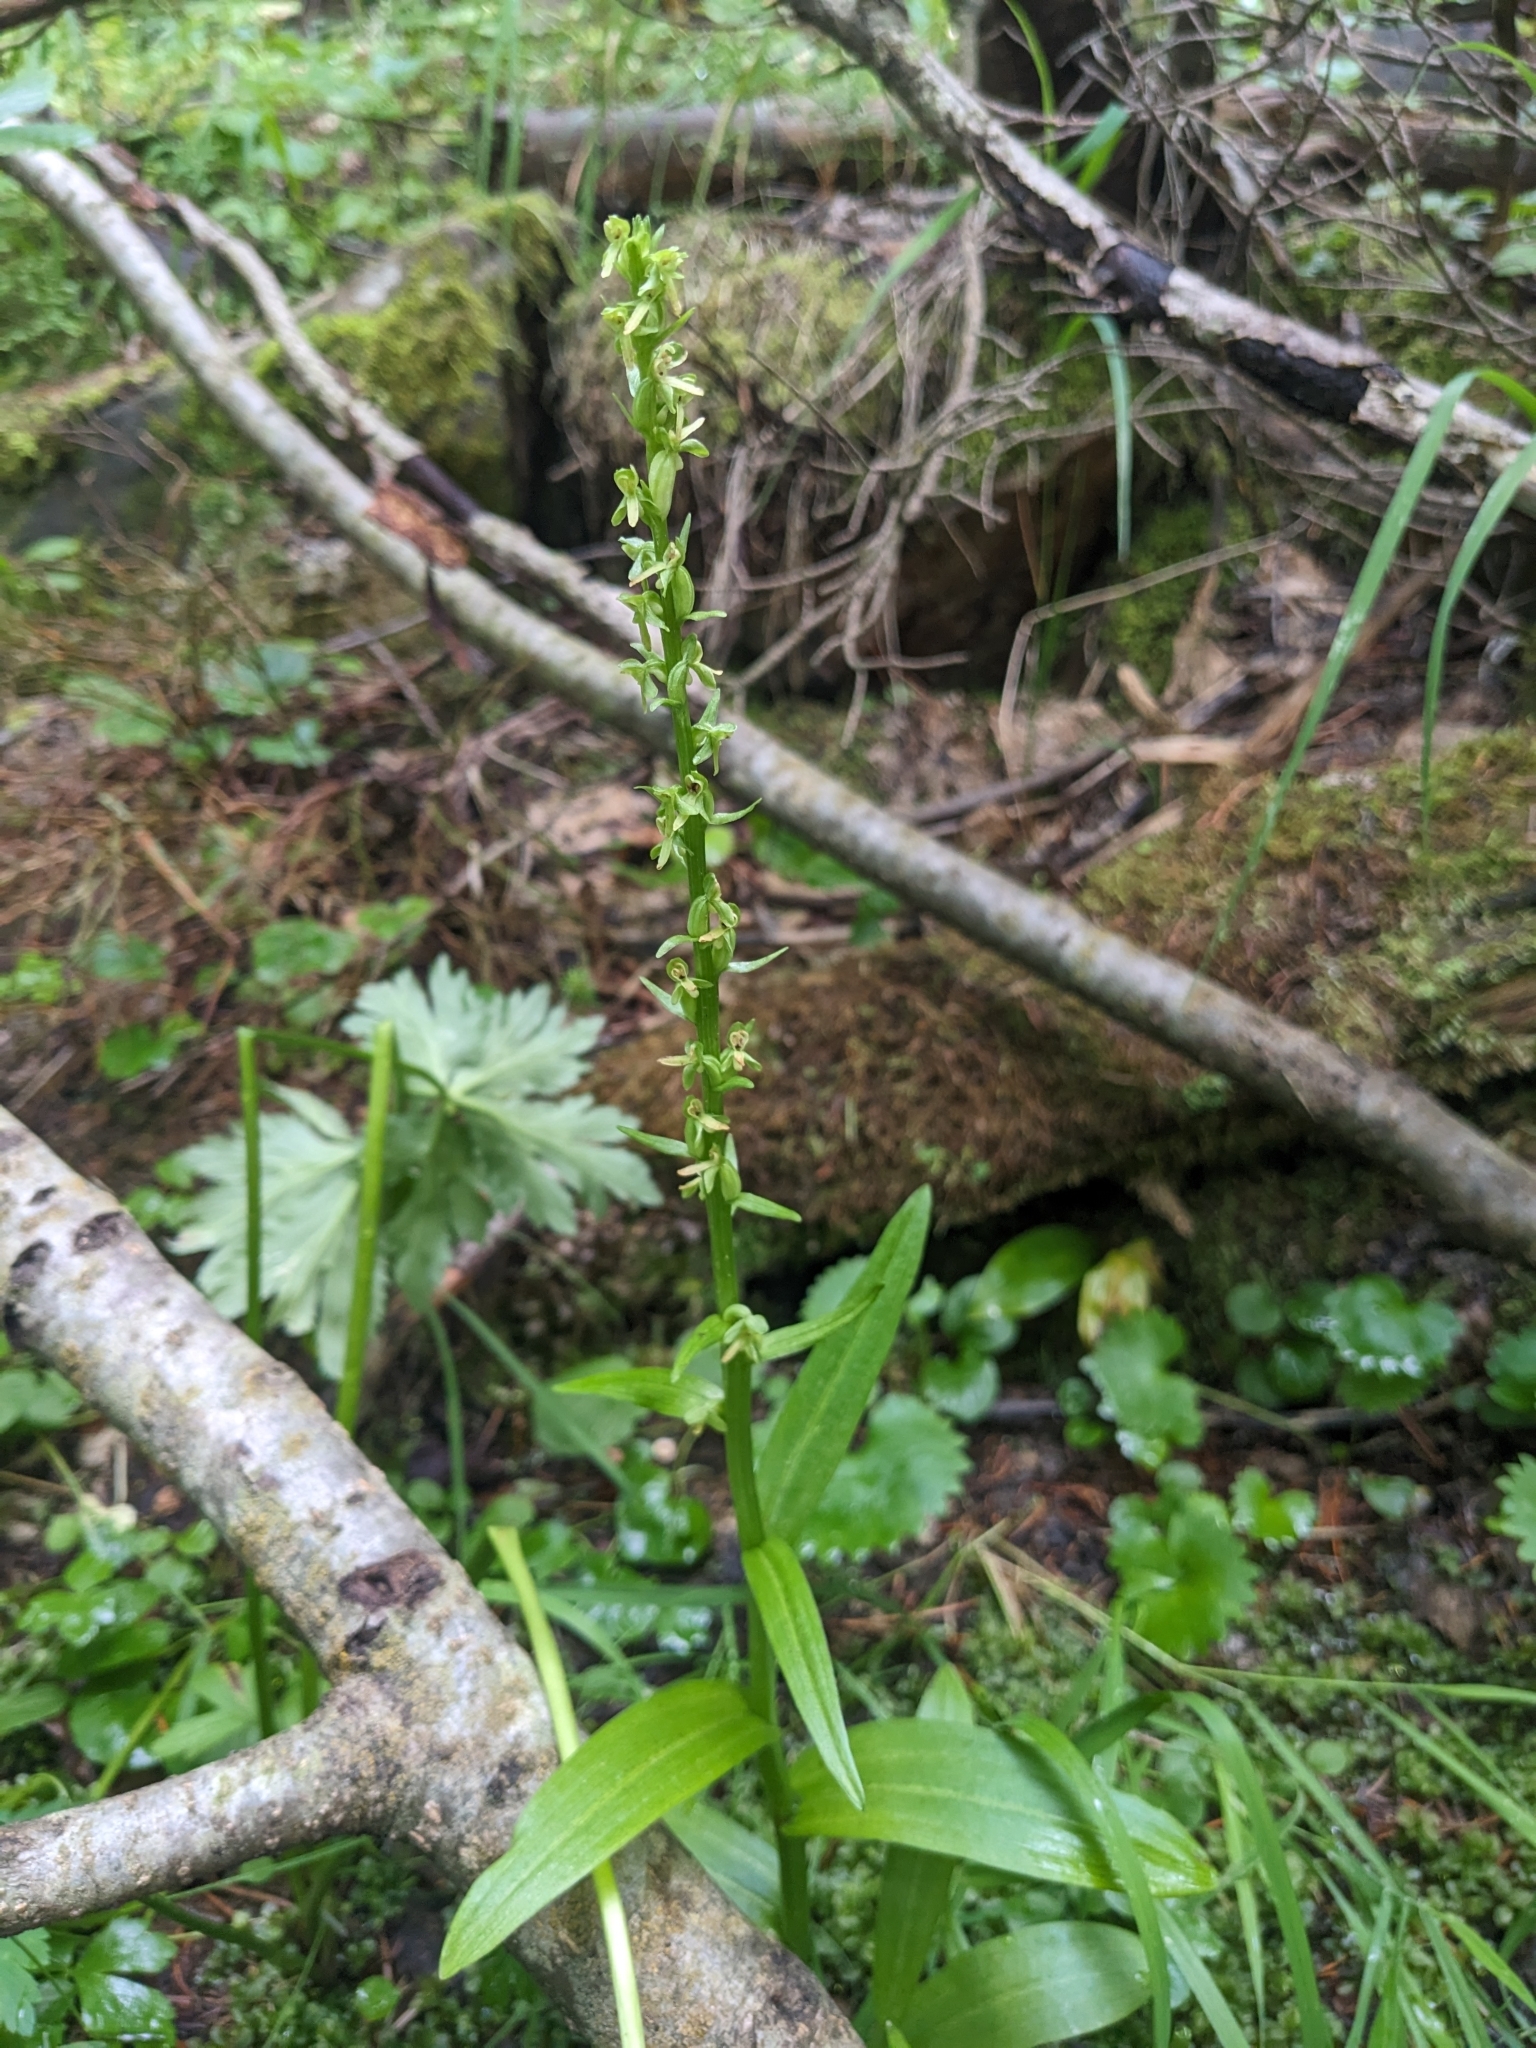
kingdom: Plantae
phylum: Tracheophyta
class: Liliopsida
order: Asparagales
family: Orchidaceae
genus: Platanthera
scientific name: Platanthera stricta
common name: Slender bog orchid
